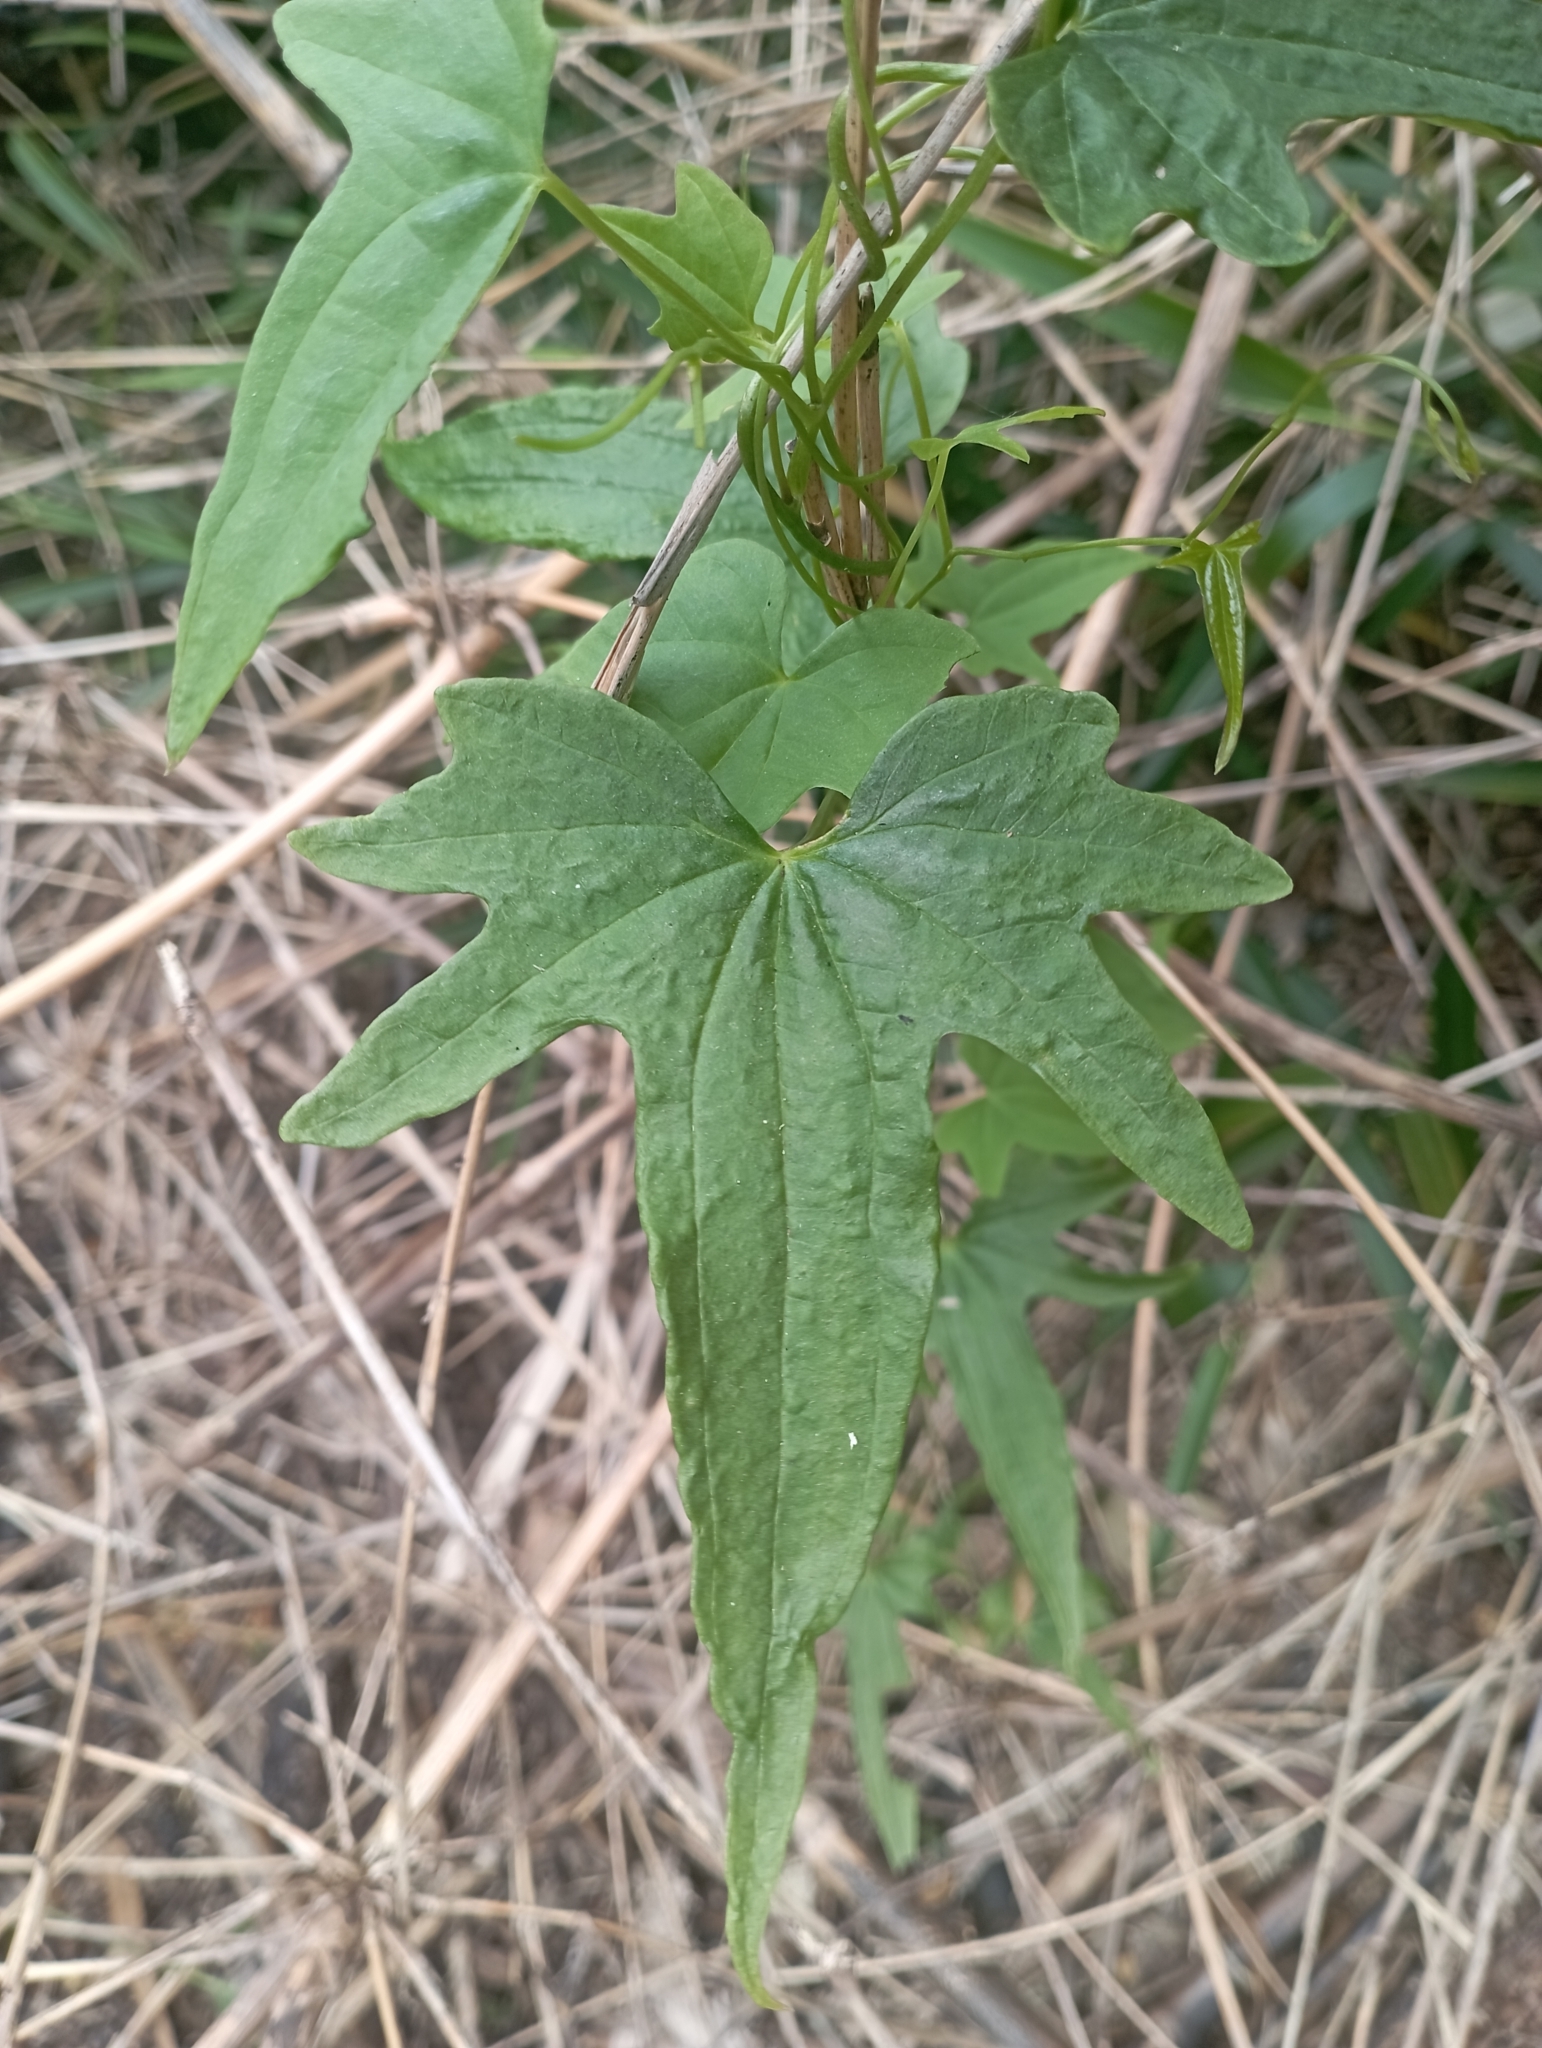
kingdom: Plantae
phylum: Tracheophyta
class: Liliopsida
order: Dioscoreales
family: Dioscoreaceae
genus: Dioscorea
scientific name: Dioscorea brachybotrya
